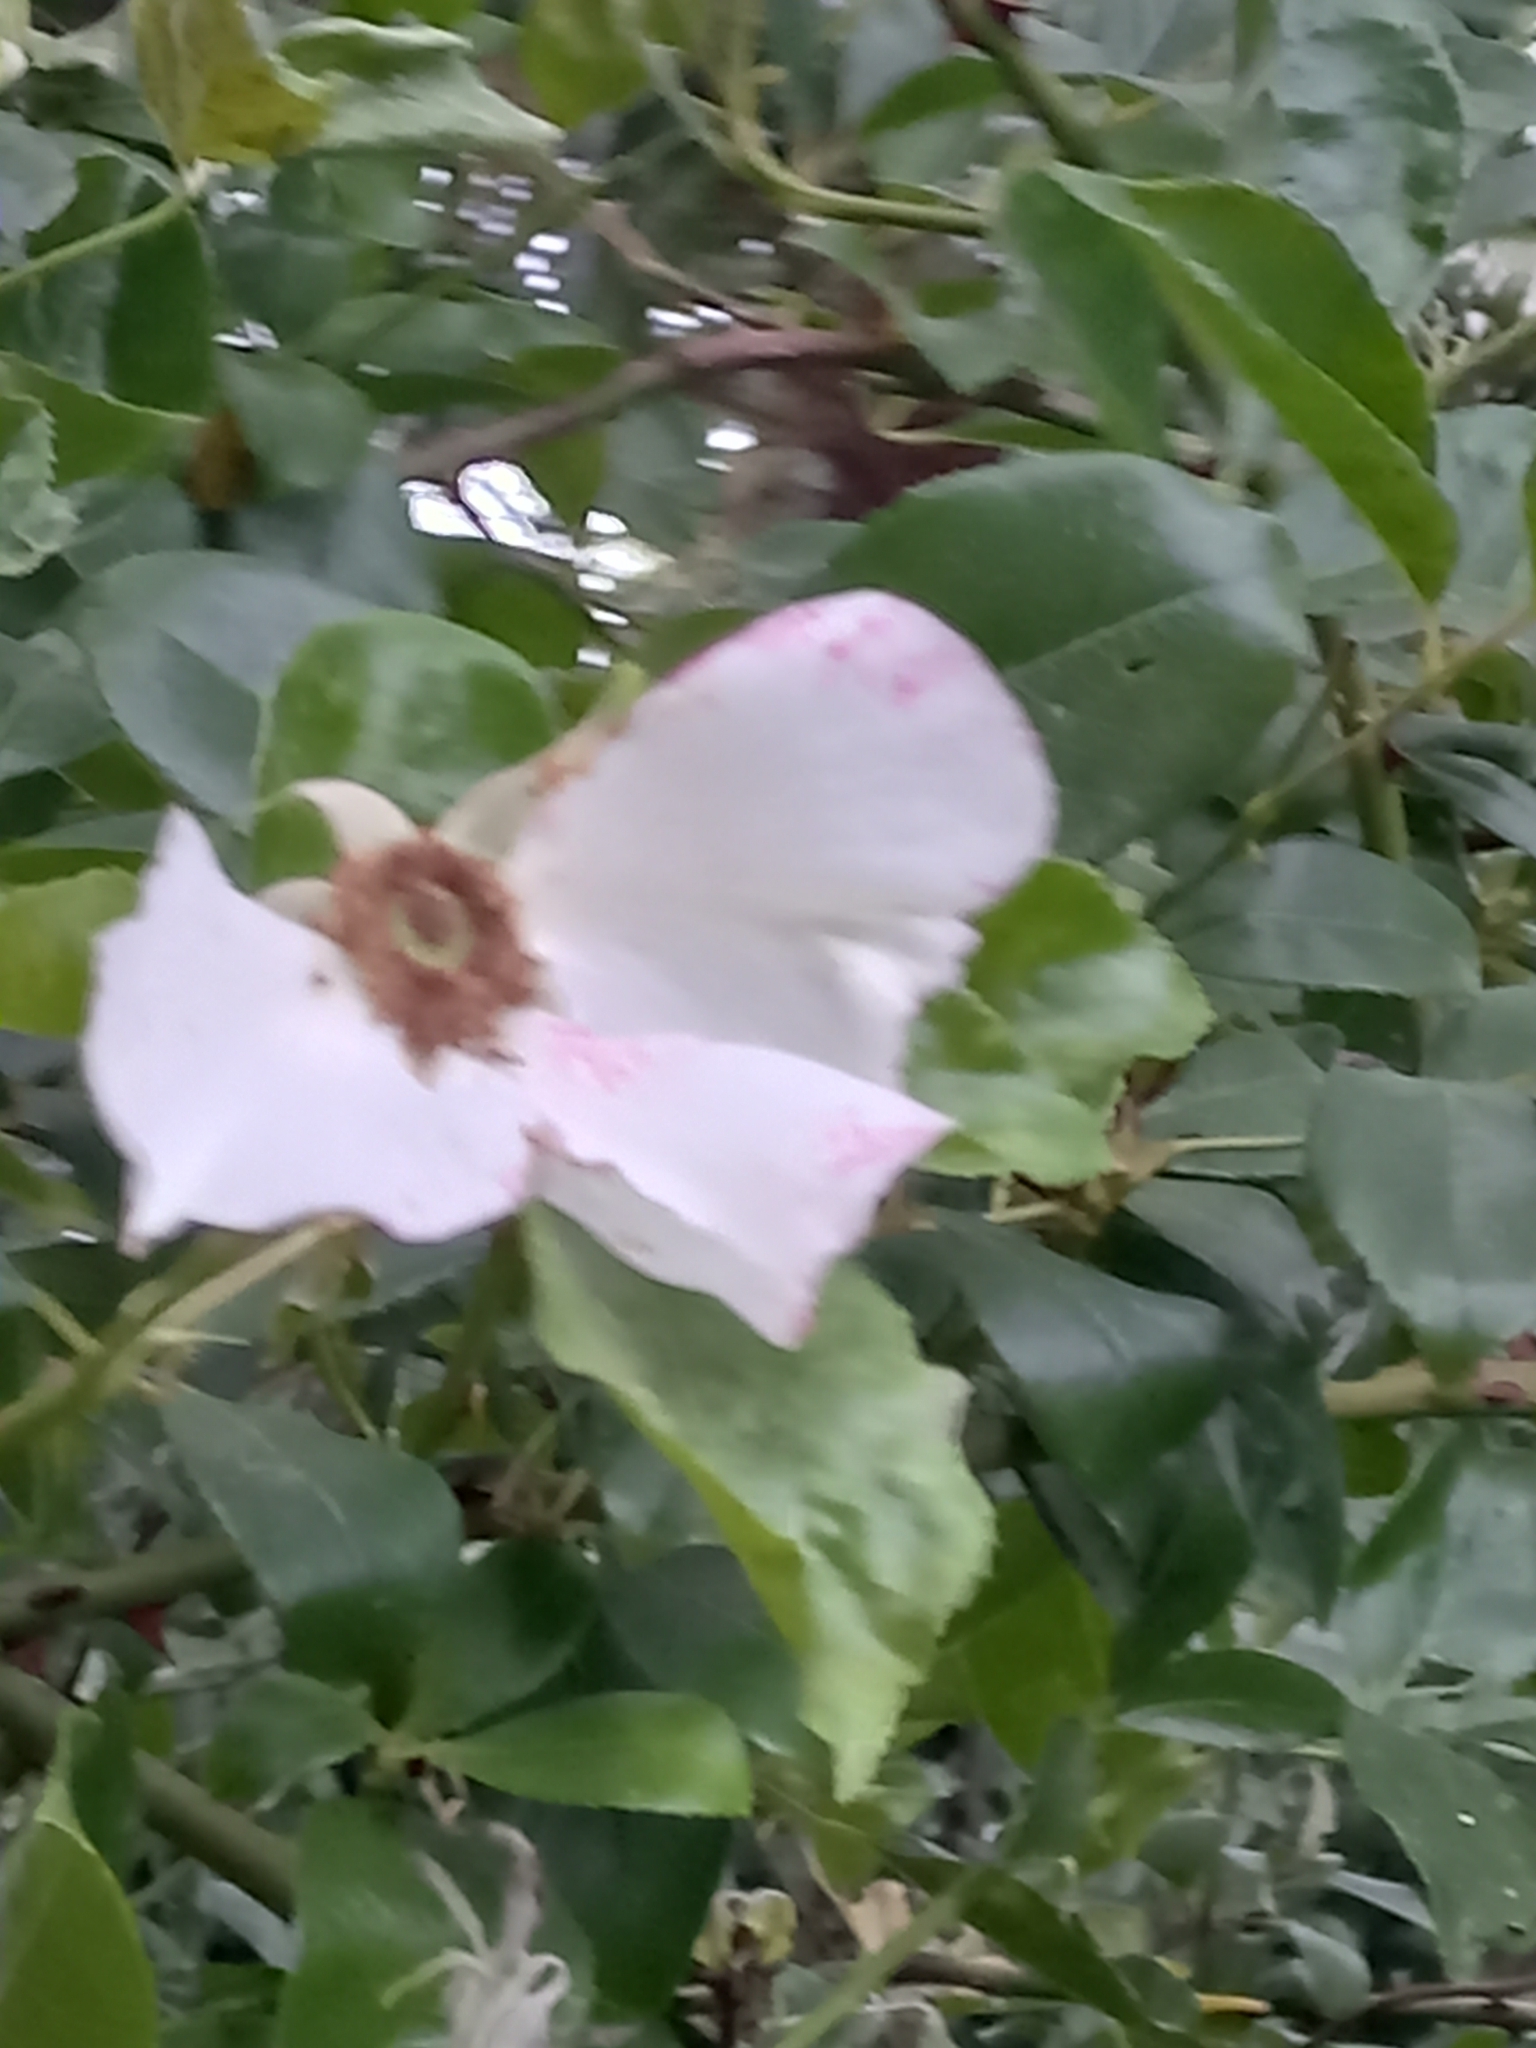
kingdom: Plantae
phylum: Tracheophyta
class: Magnoliopsida
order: Rosales
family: Rosaceae
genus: Rosa
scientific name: Rosa laevigata
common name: Cherokee rose
